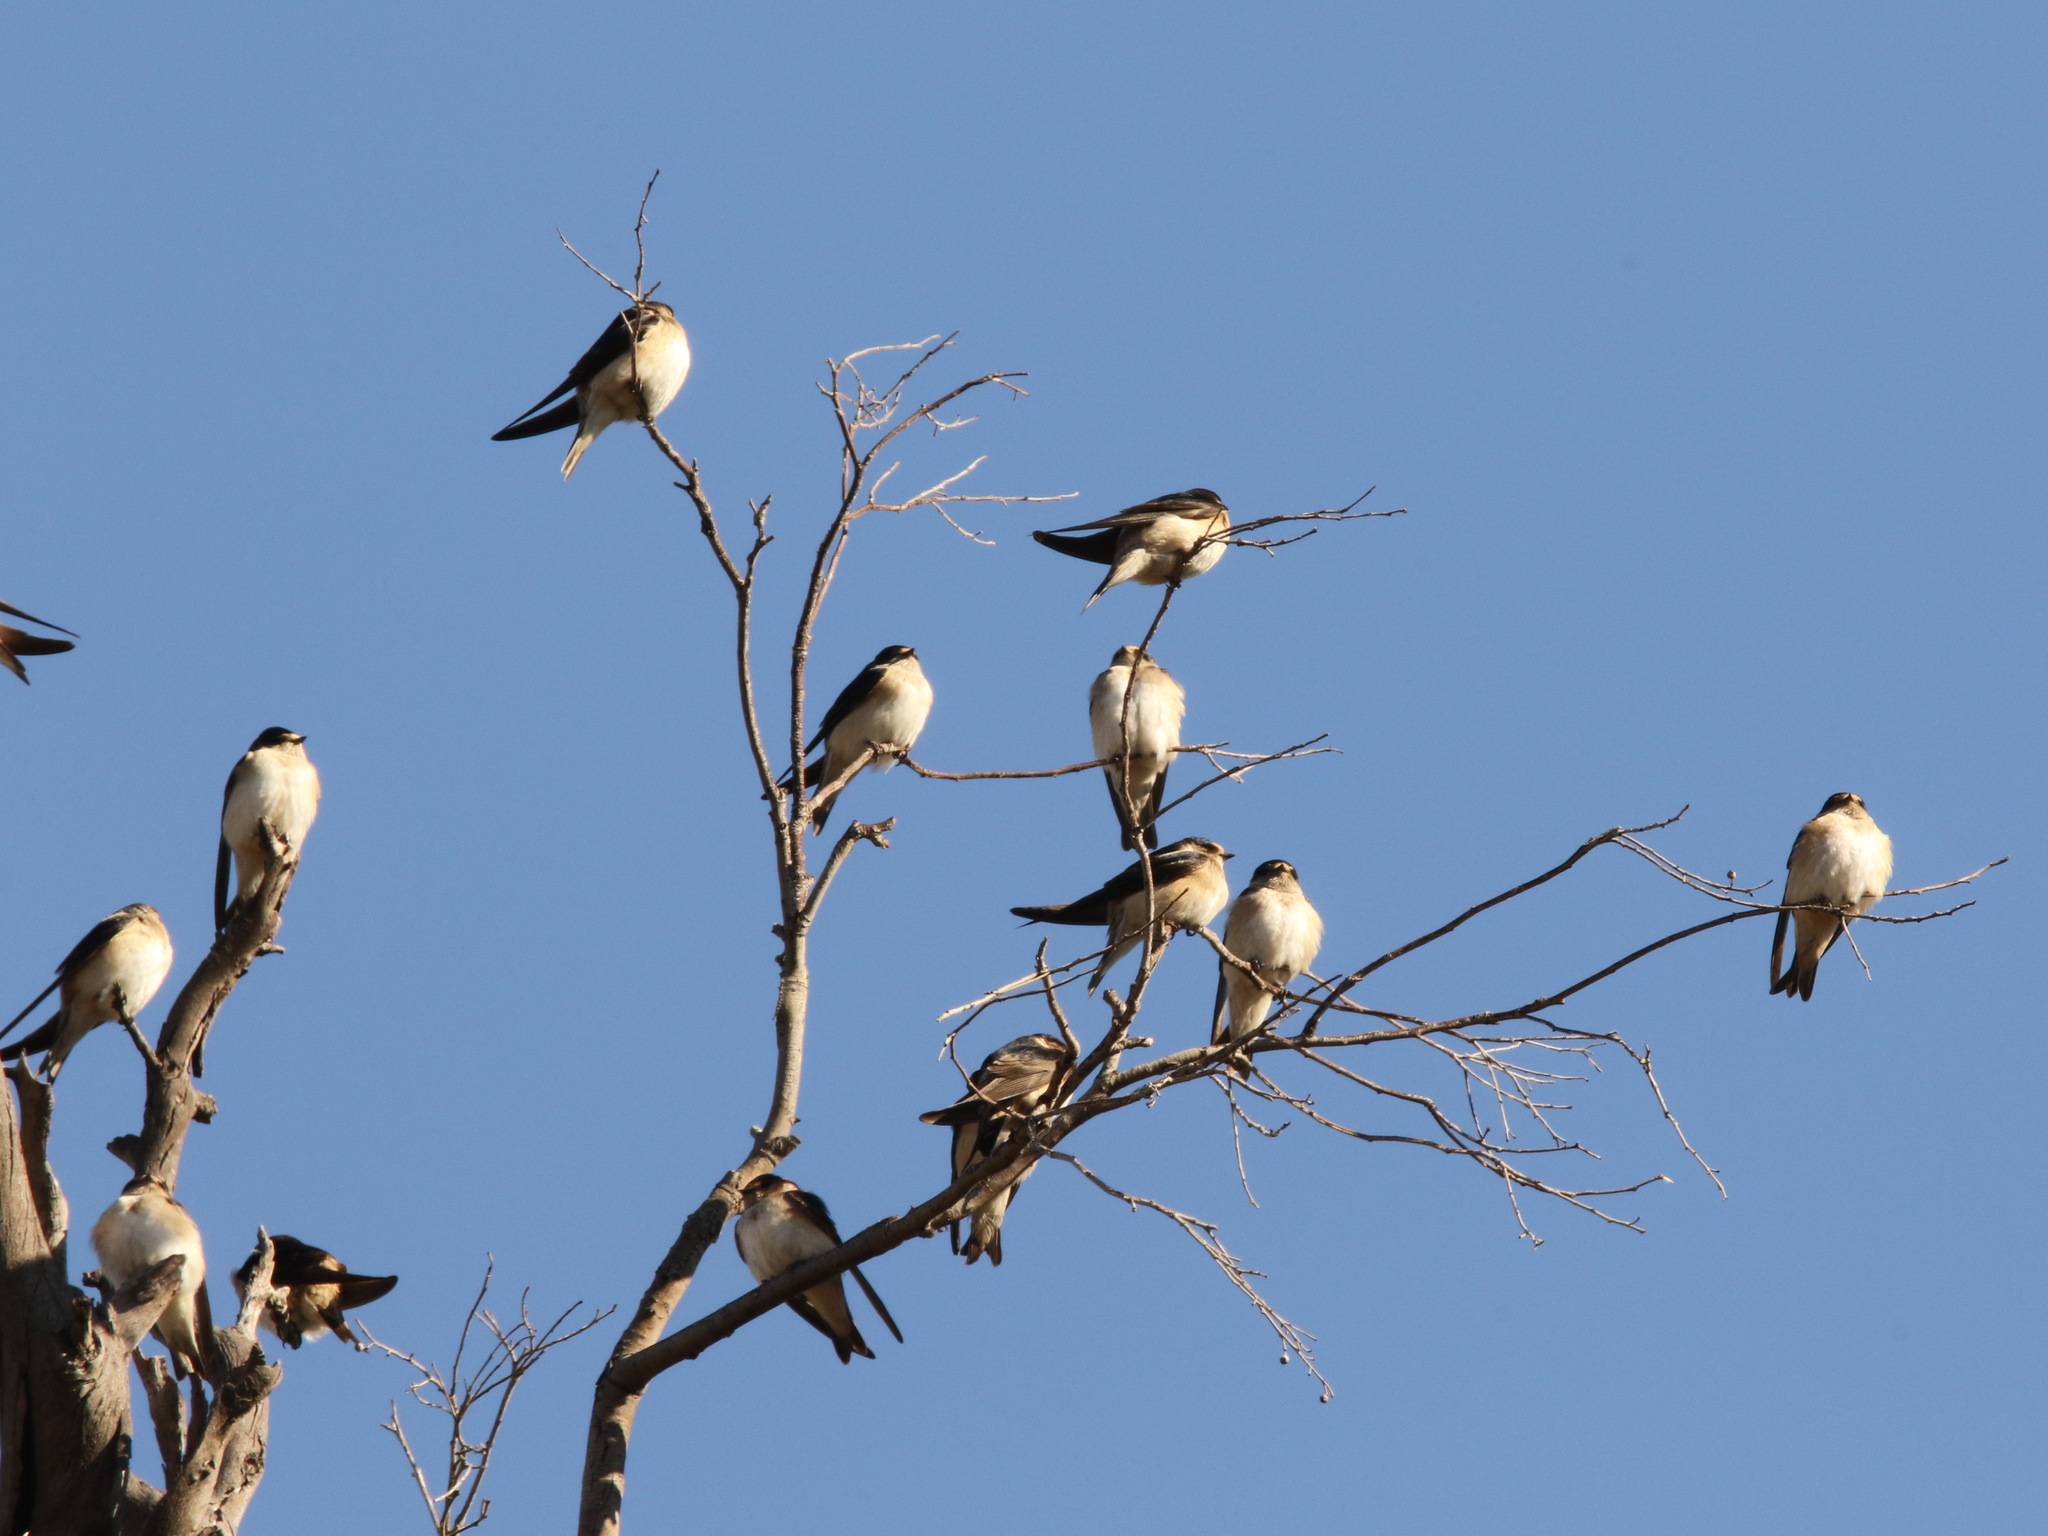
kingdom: Animalia
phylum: Chordata
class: Aves
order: Passeriformes
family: Hirundinidae
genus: Petrochelidon
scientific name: Petrochelidon nigricans
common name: Tree martin
